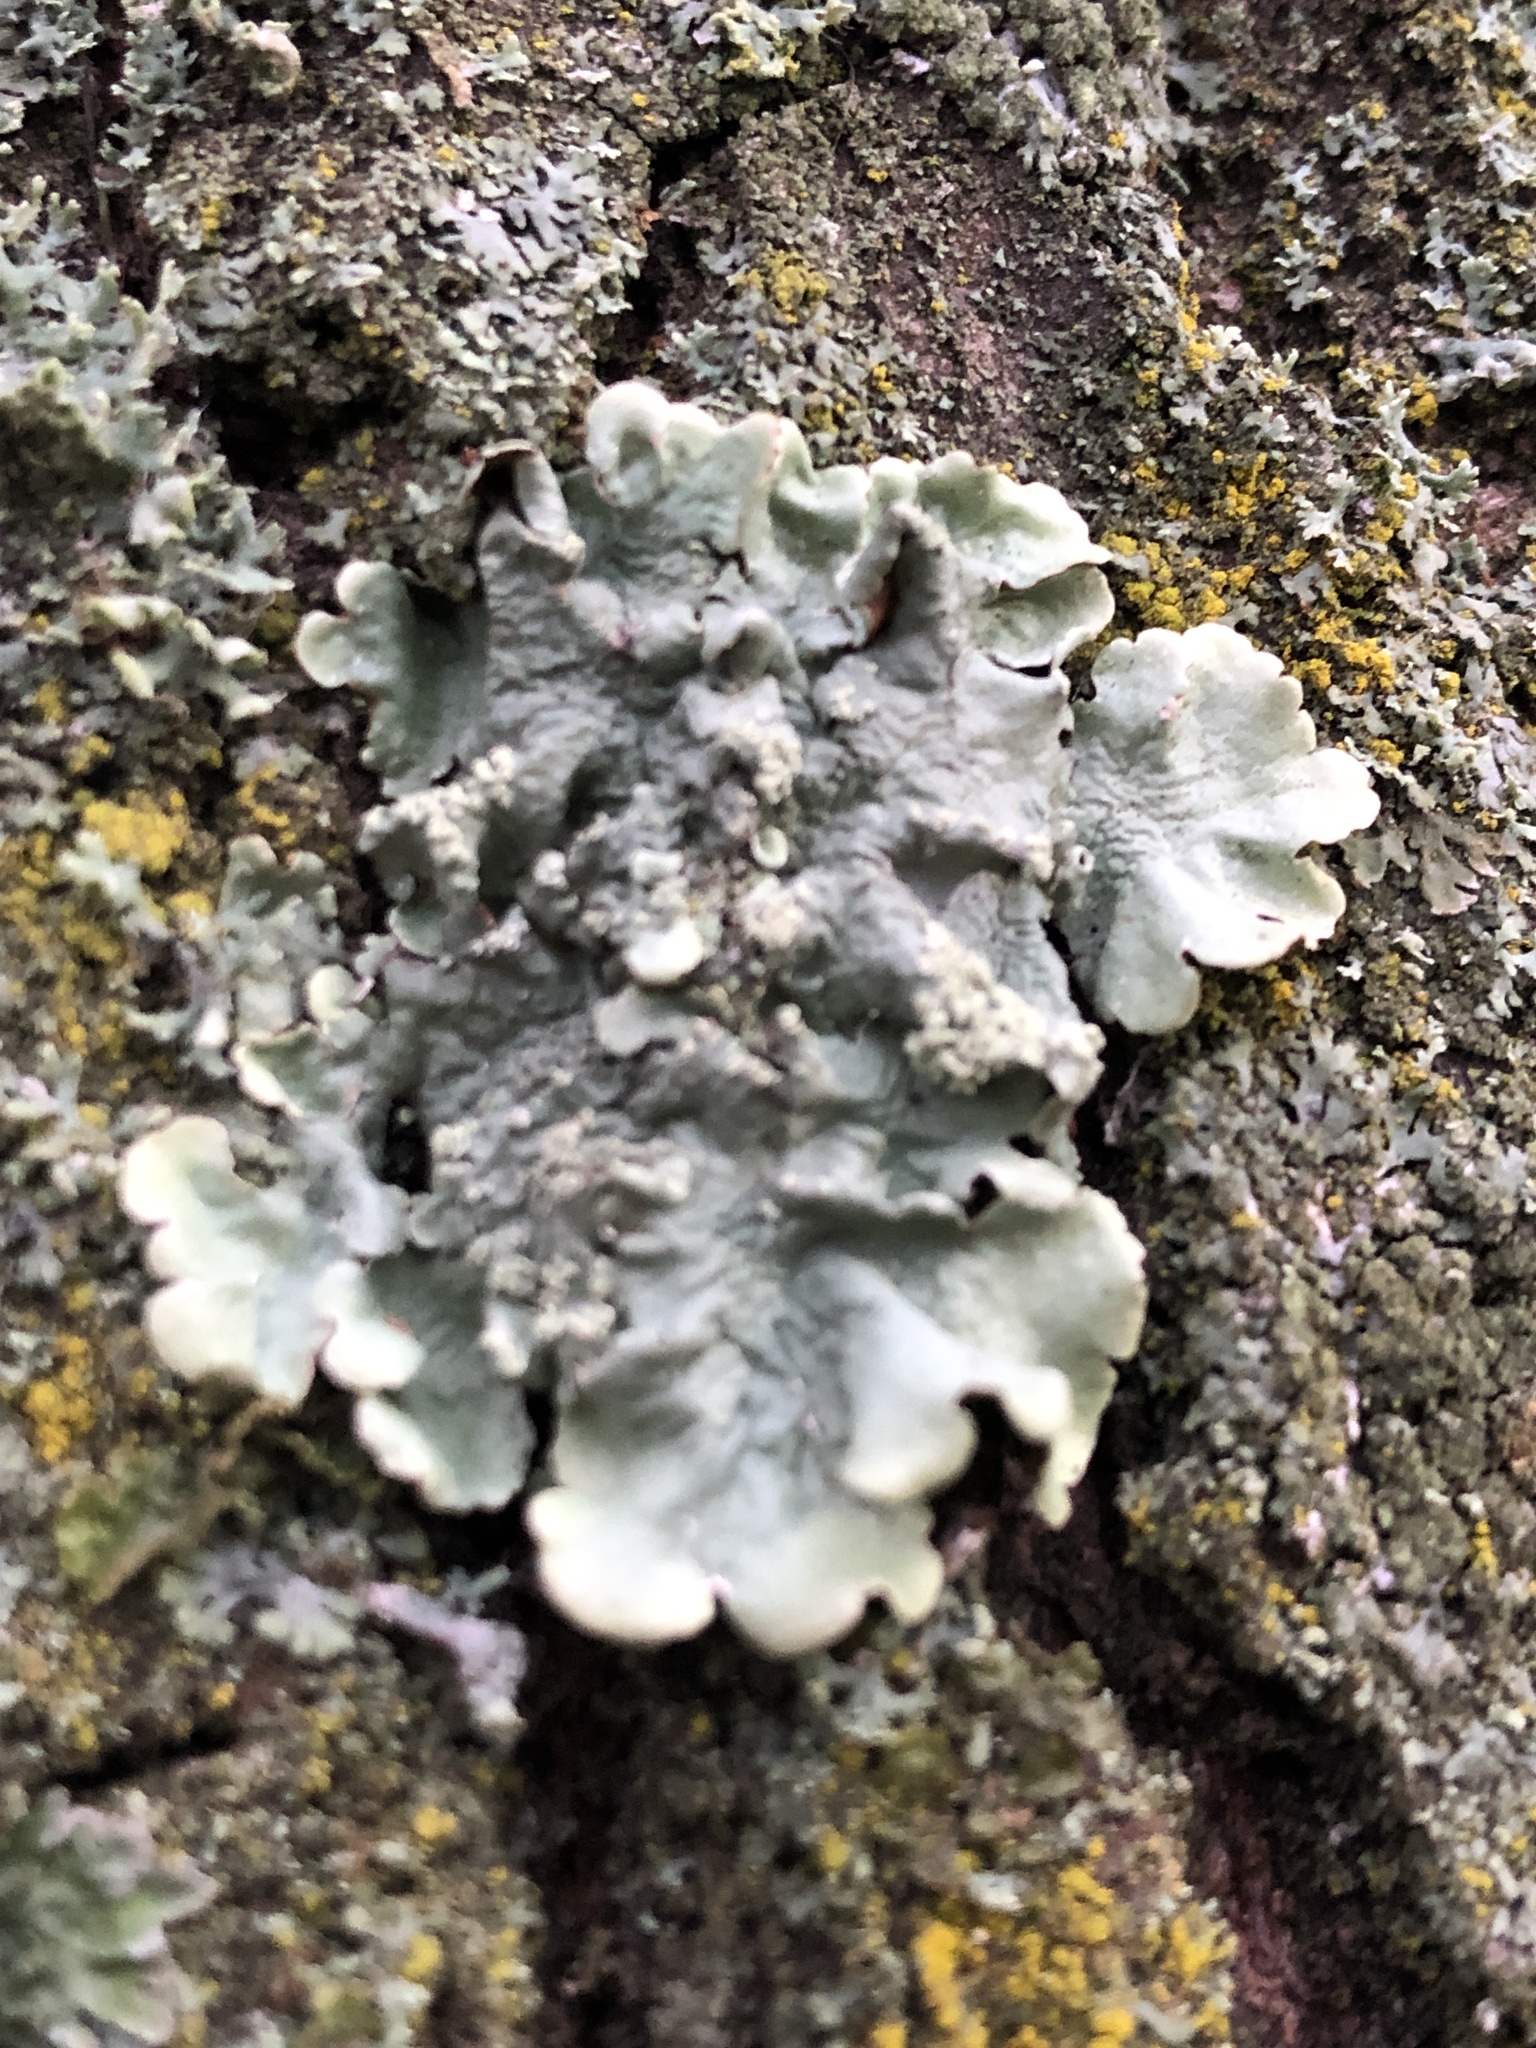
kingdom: Fungi
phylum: Ascomycota
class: Lecanoromycetes
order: Lecanorales
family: Parmeliaceae
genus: Flavoparmelia
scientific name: Flavoparmelia caperata
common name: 40-mile per hour lichen
